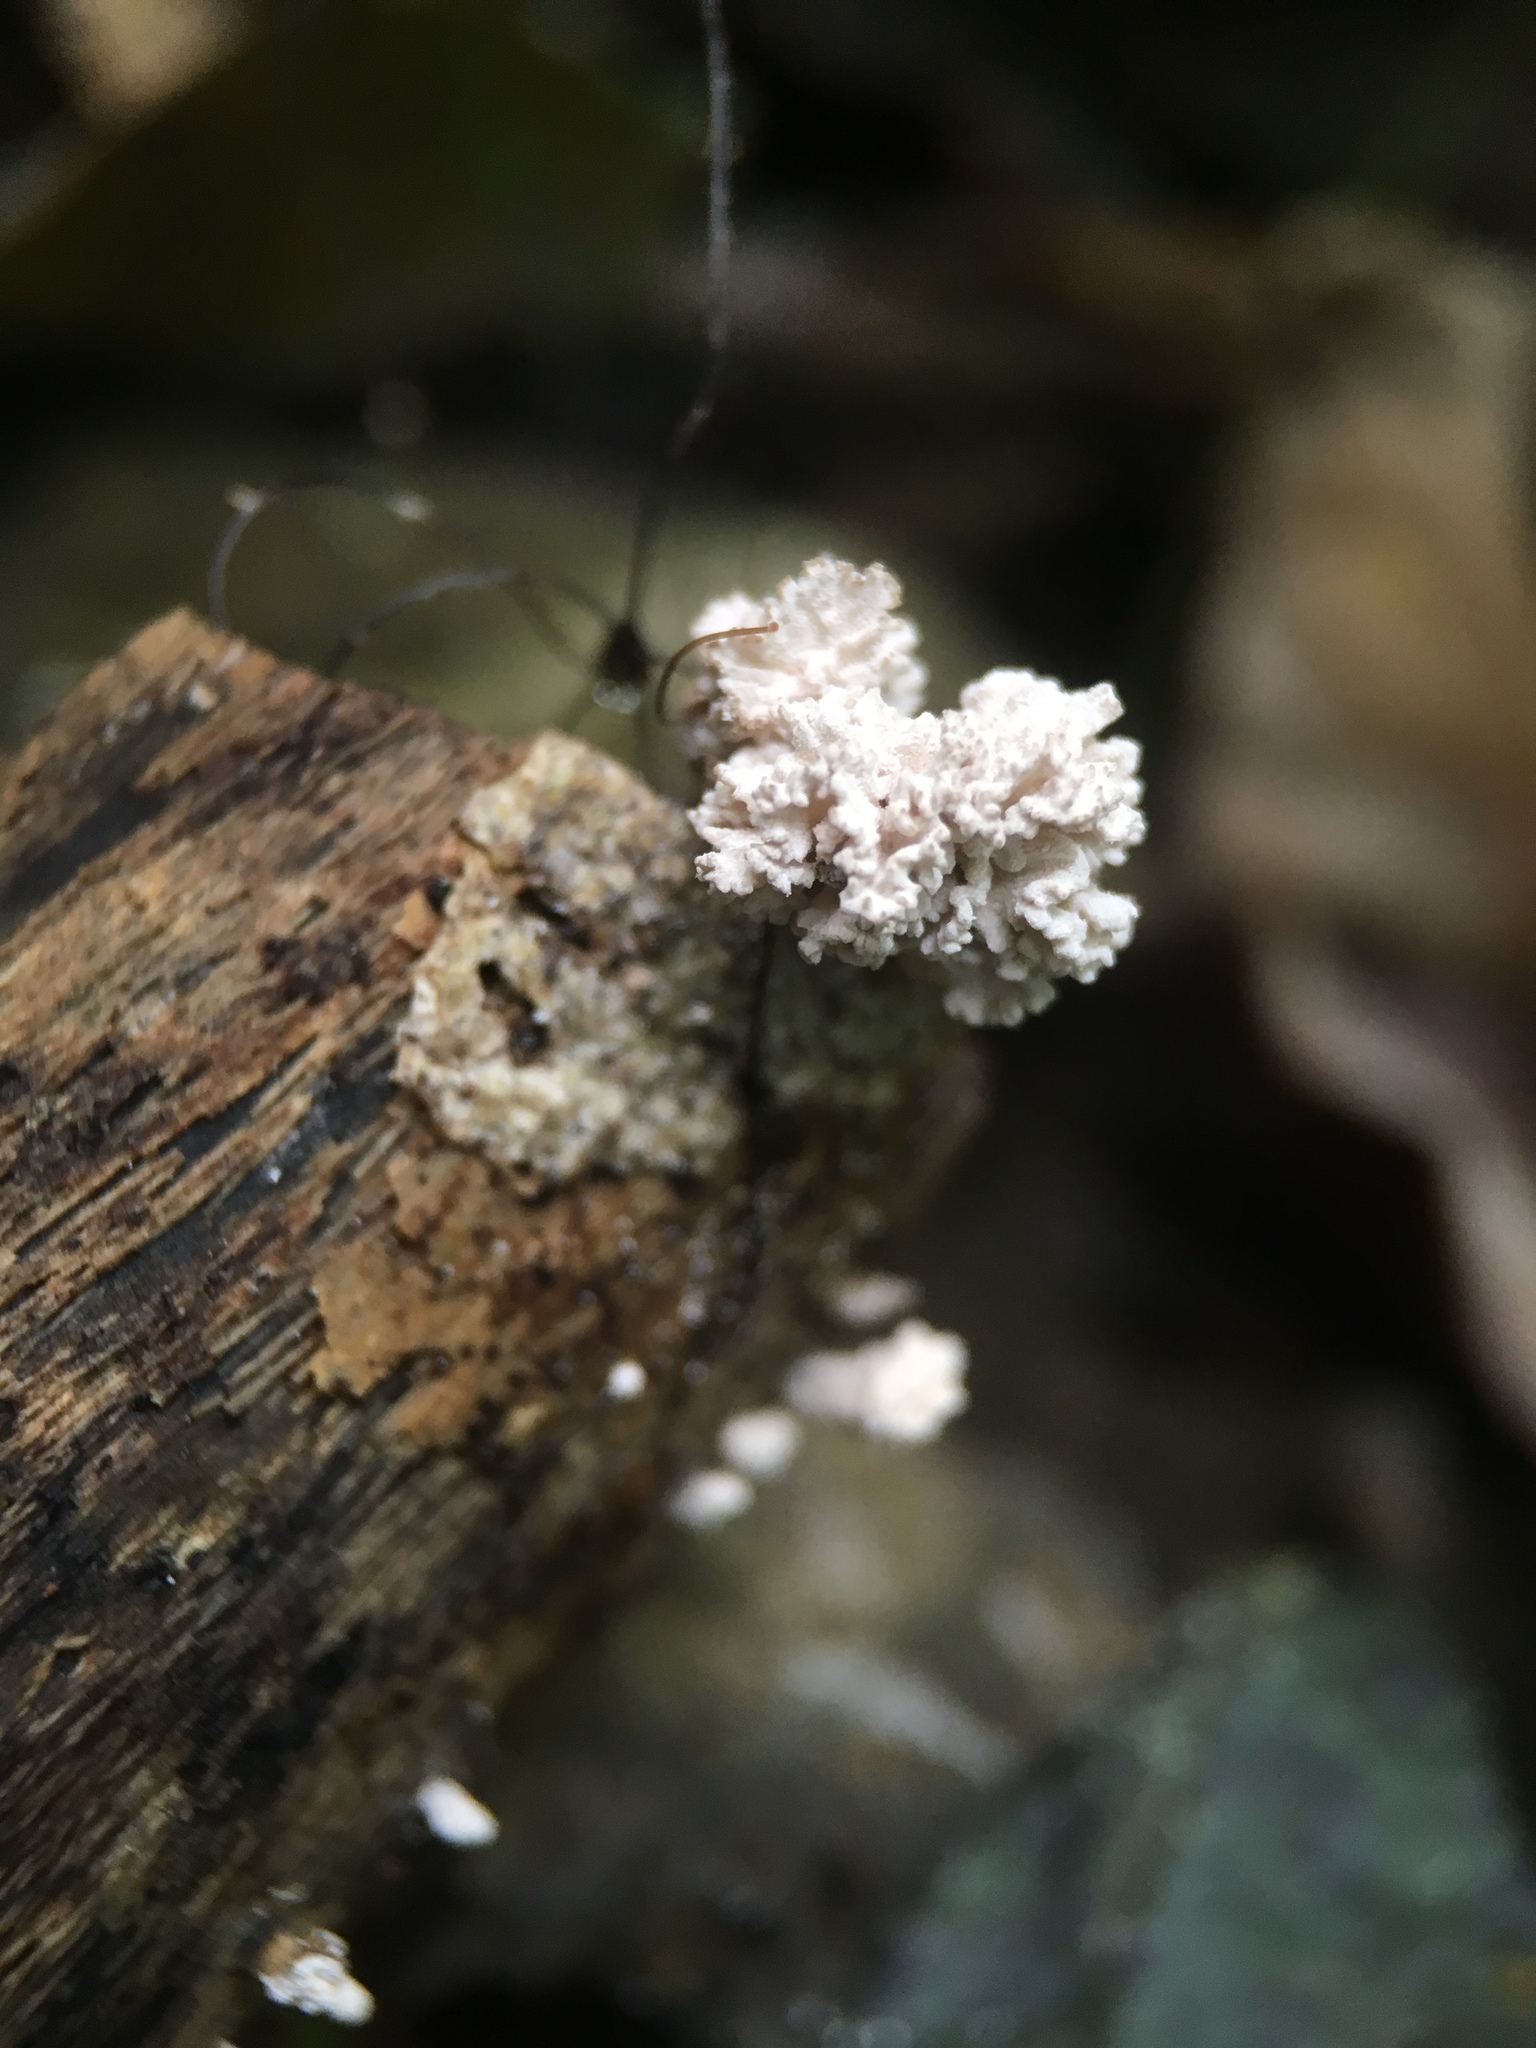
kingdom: Fungi
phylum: Ascomycota
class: Sordariomycetes
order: Xylariales
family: Xylariaceae
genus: Xylaria
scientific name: Xylaria cubensis
